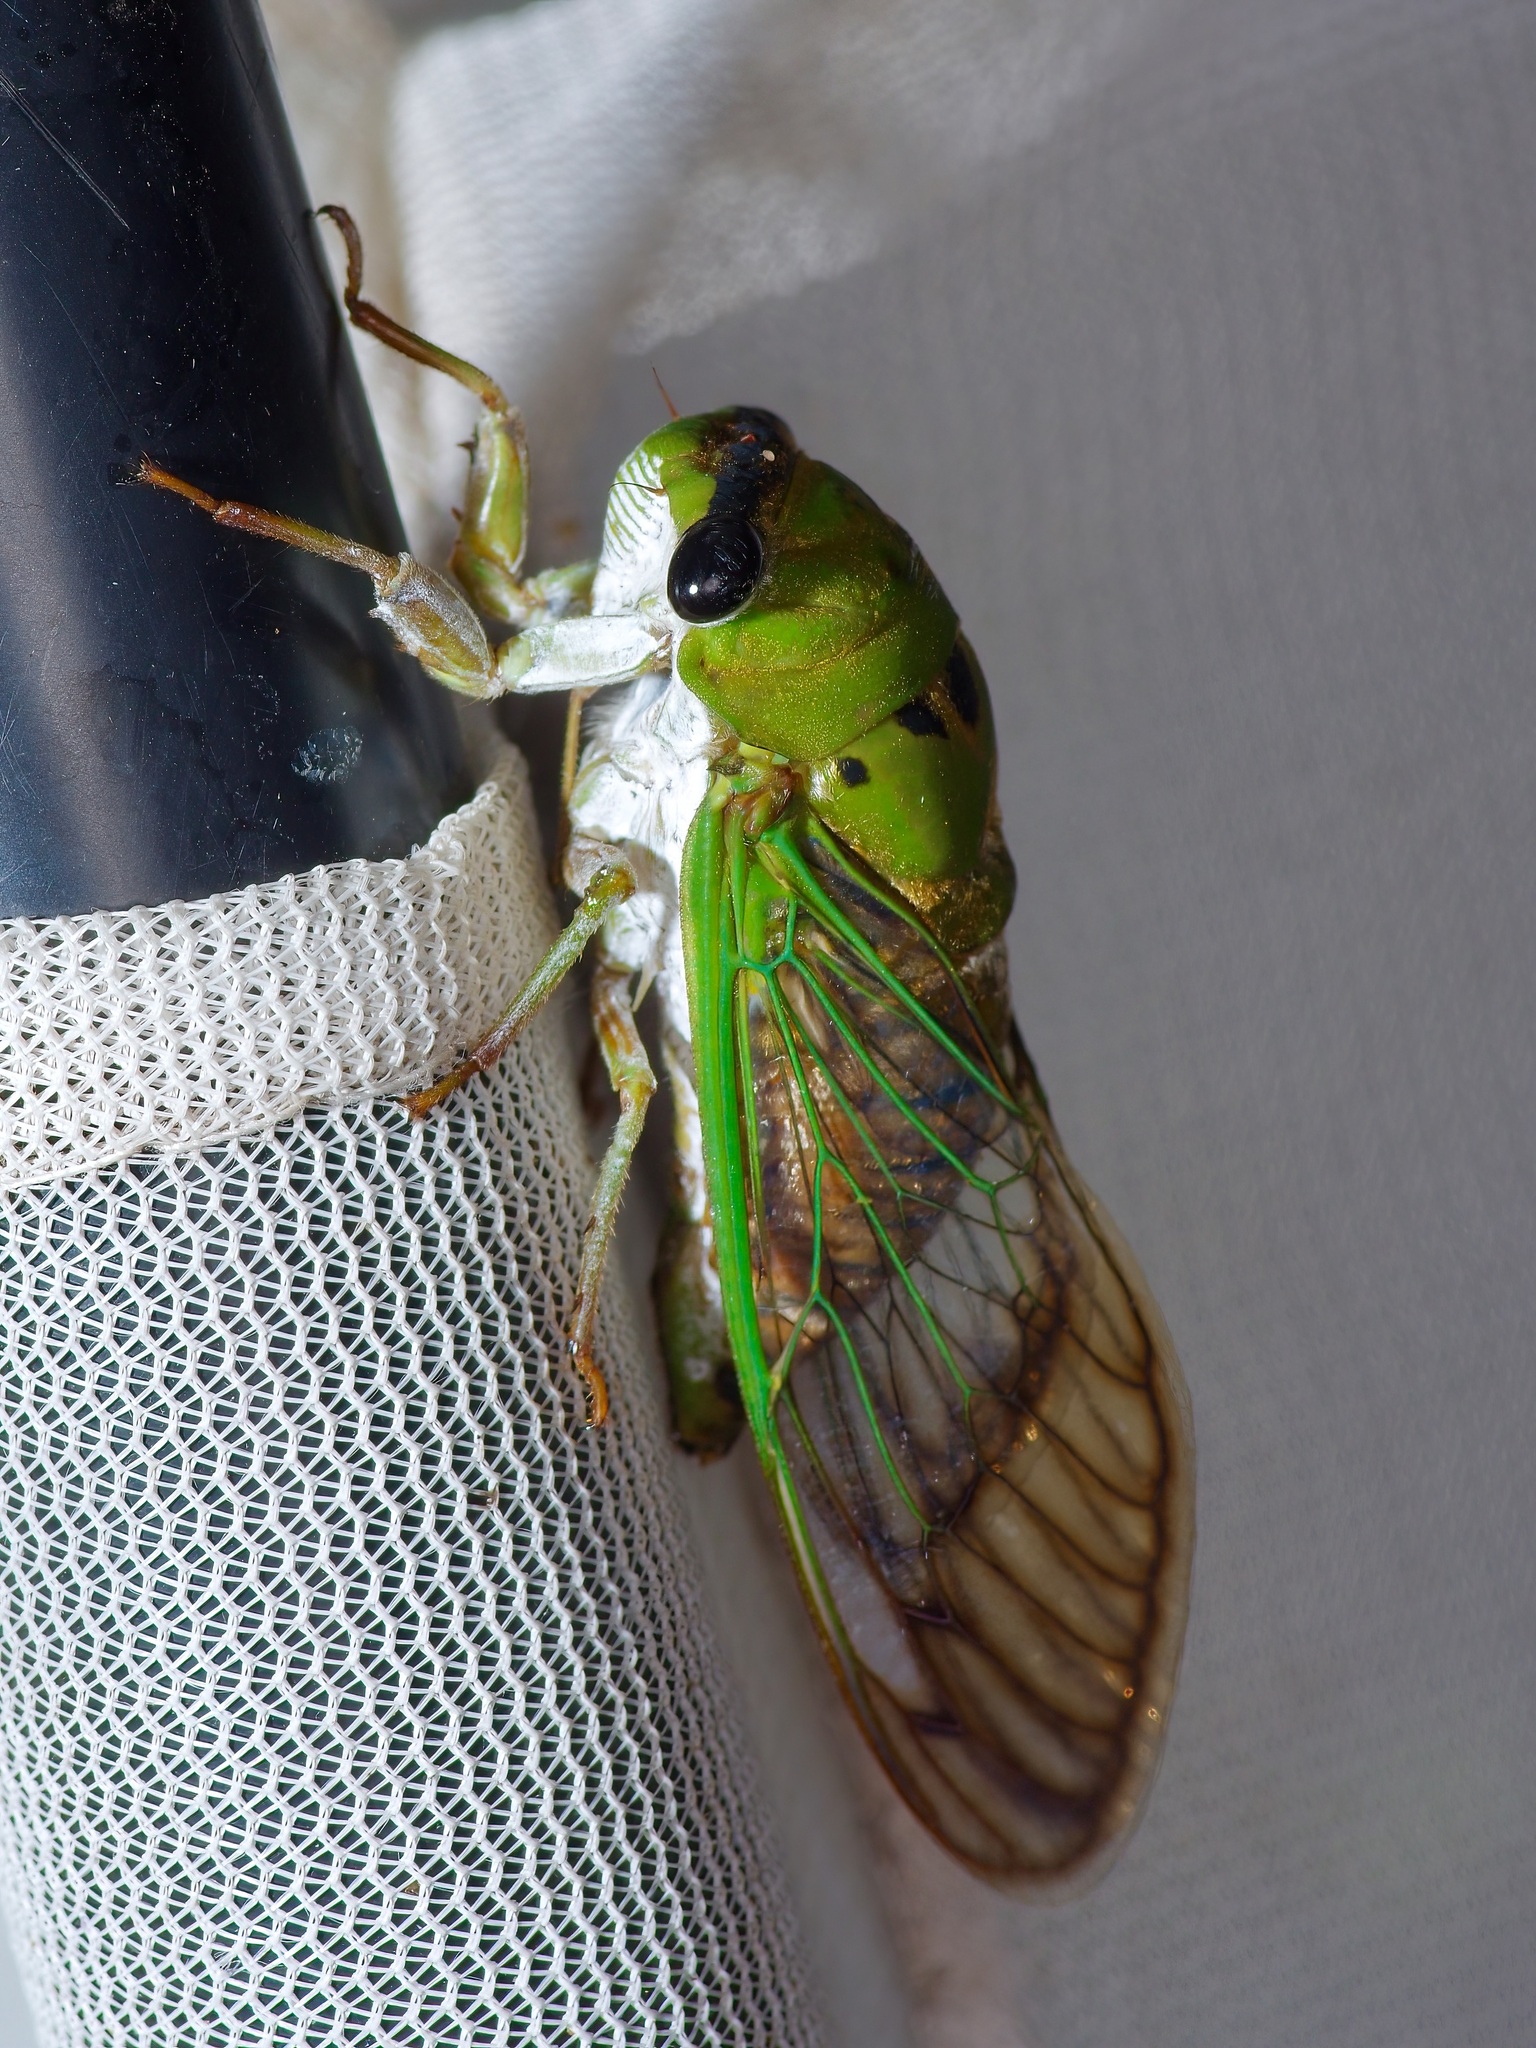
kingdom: Animalia
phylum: Arthropoda
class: Insecta
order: Hemiptera
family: Cicadidae
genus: Neotibicen
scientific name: Neotibicen superbus
